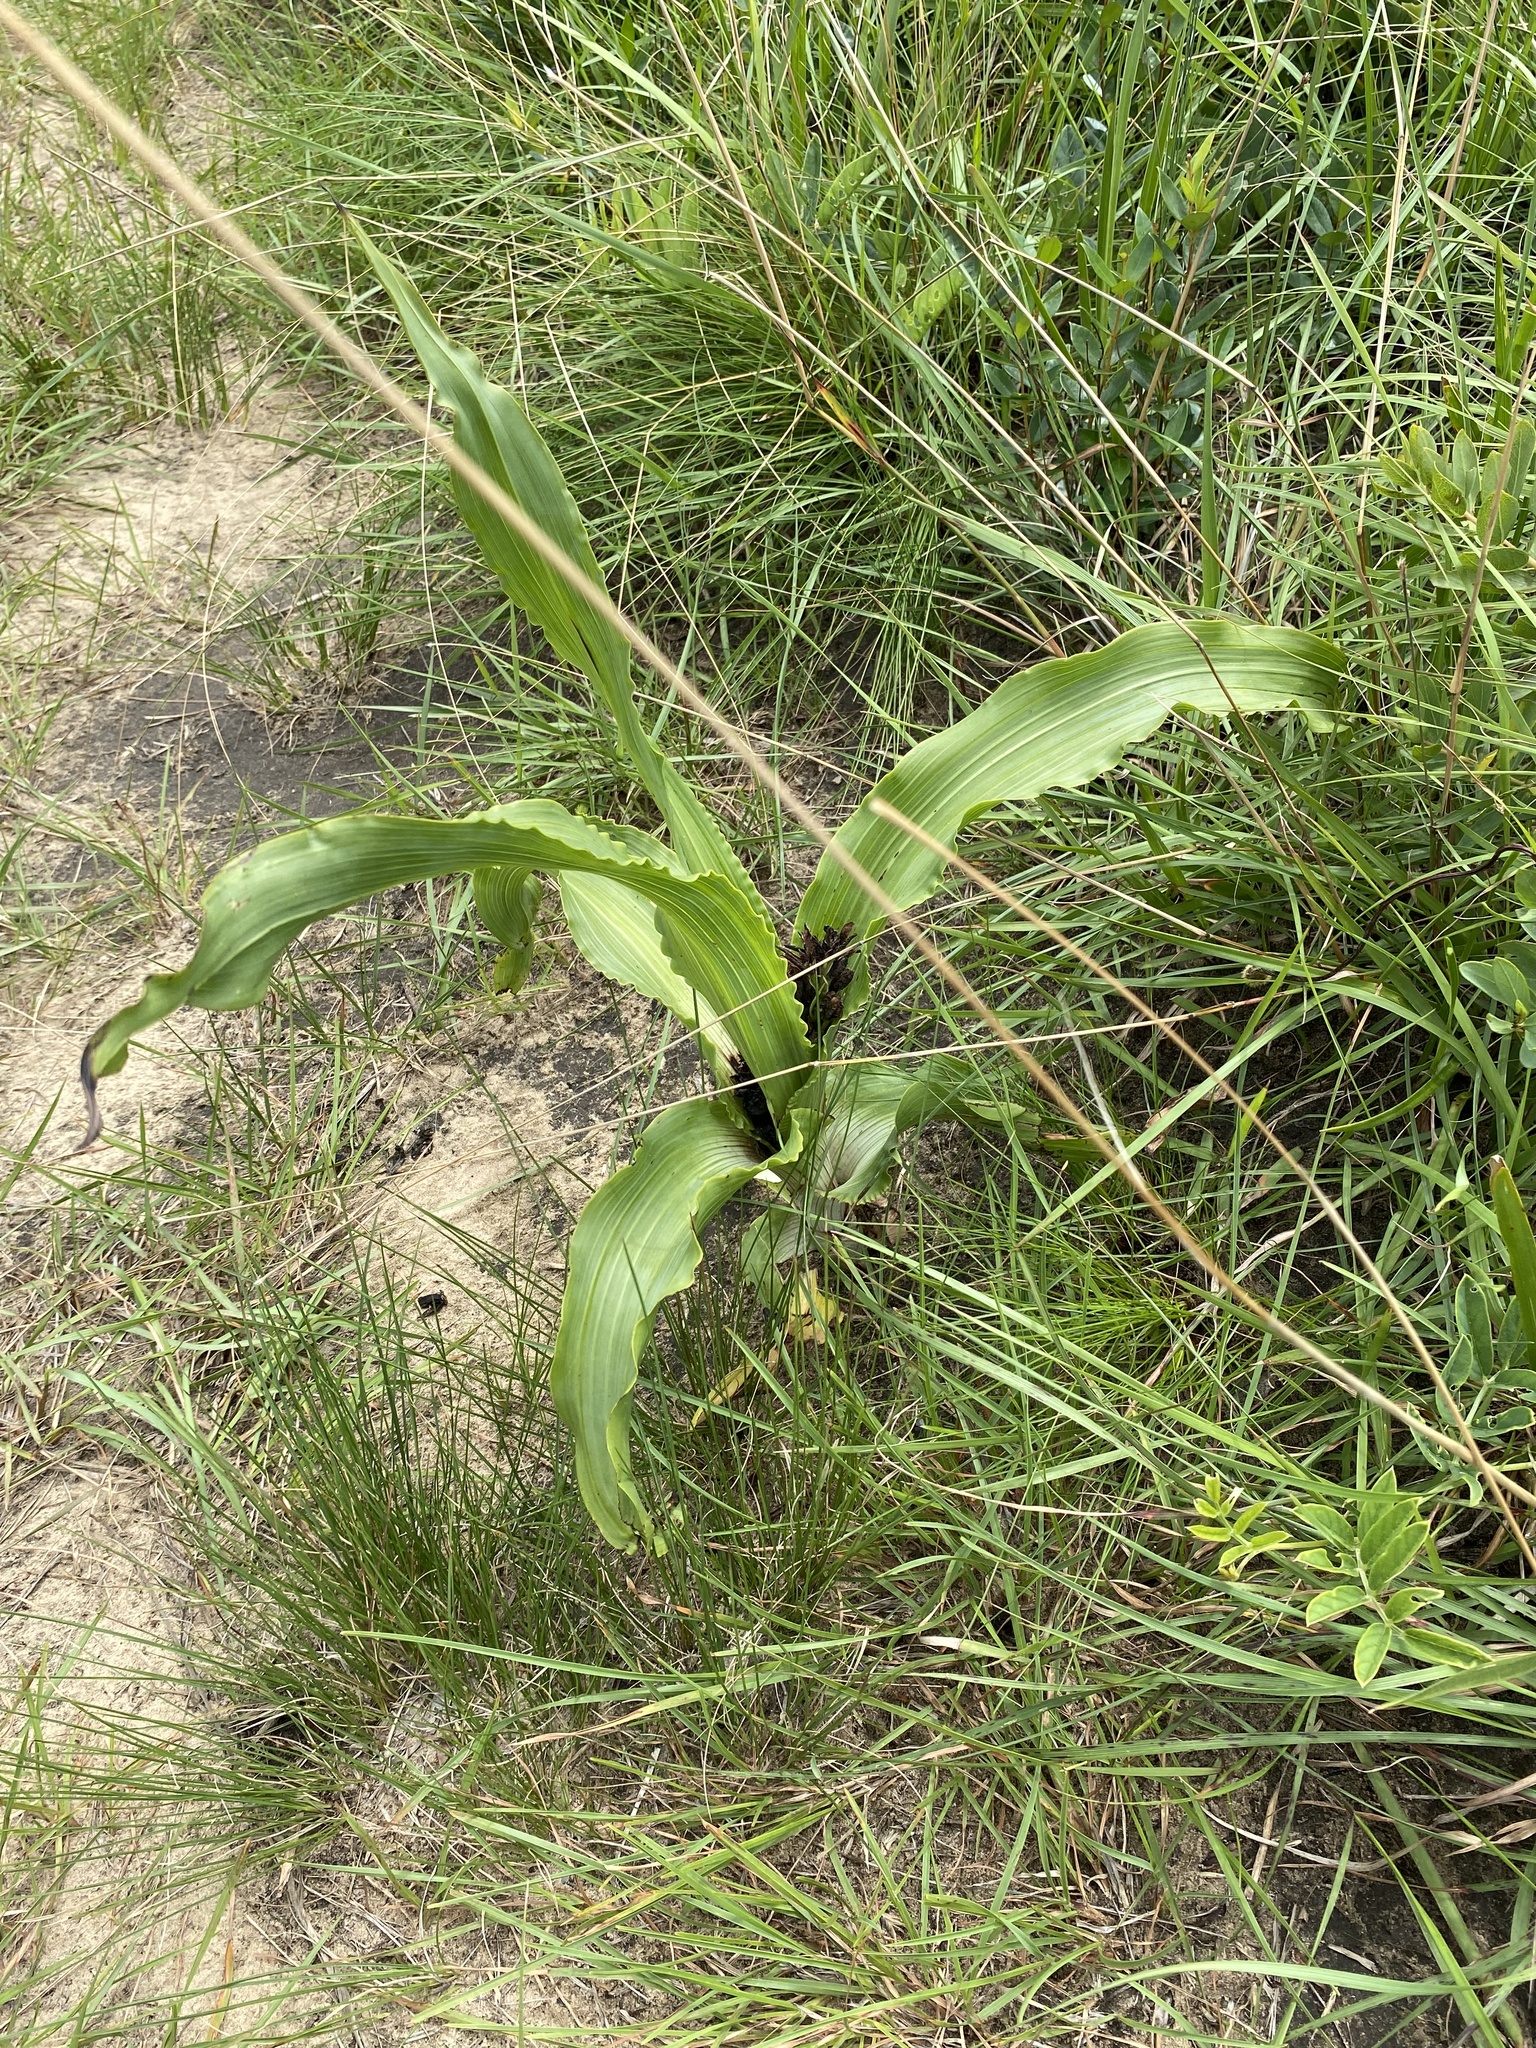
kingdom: Plantae
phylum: Tracheophyta
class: Liliopsida
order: Asparagales
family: Hypoxidaceae
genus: Hypoxis
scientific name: Hypoxis colchicifolia
